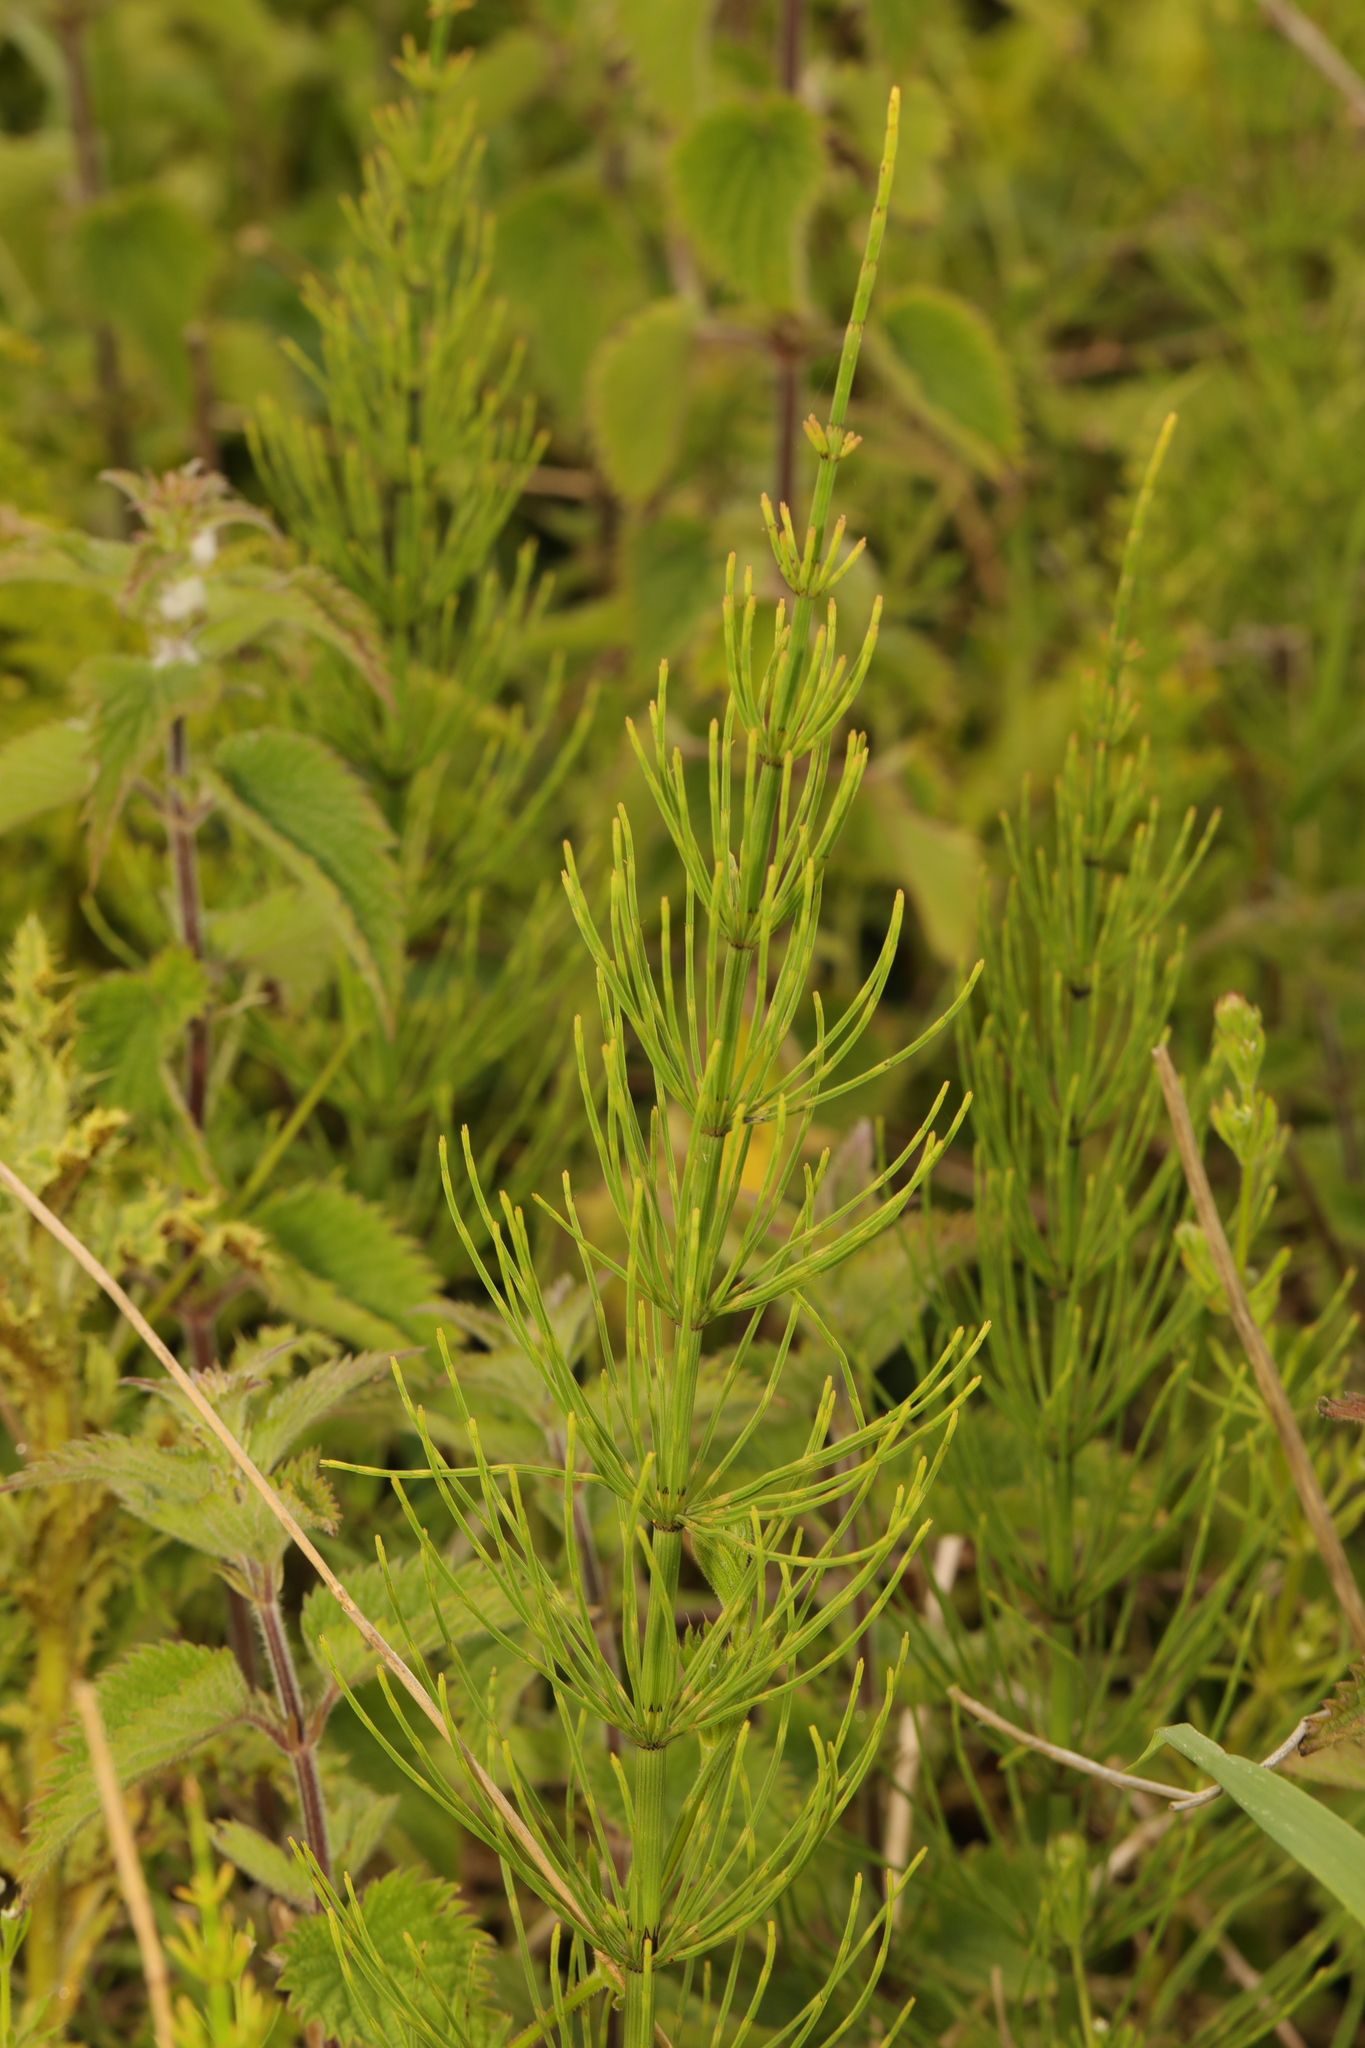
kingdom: Plantae
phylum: Tracheophyta
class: Polypodiopsida
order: Equisetales
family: Equisetaceae
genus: Equisetum
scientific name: Equisetum arvense
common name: Field horsetail
